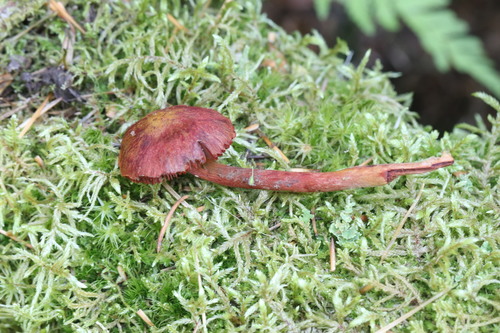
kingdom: Fungi
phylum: Basidiomycota
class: Agaricomycetes
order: Agaricales
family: Cortinariaceae
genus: Cortinarius
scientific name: Cortinarius sanguineus
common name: Bloodred webcap
